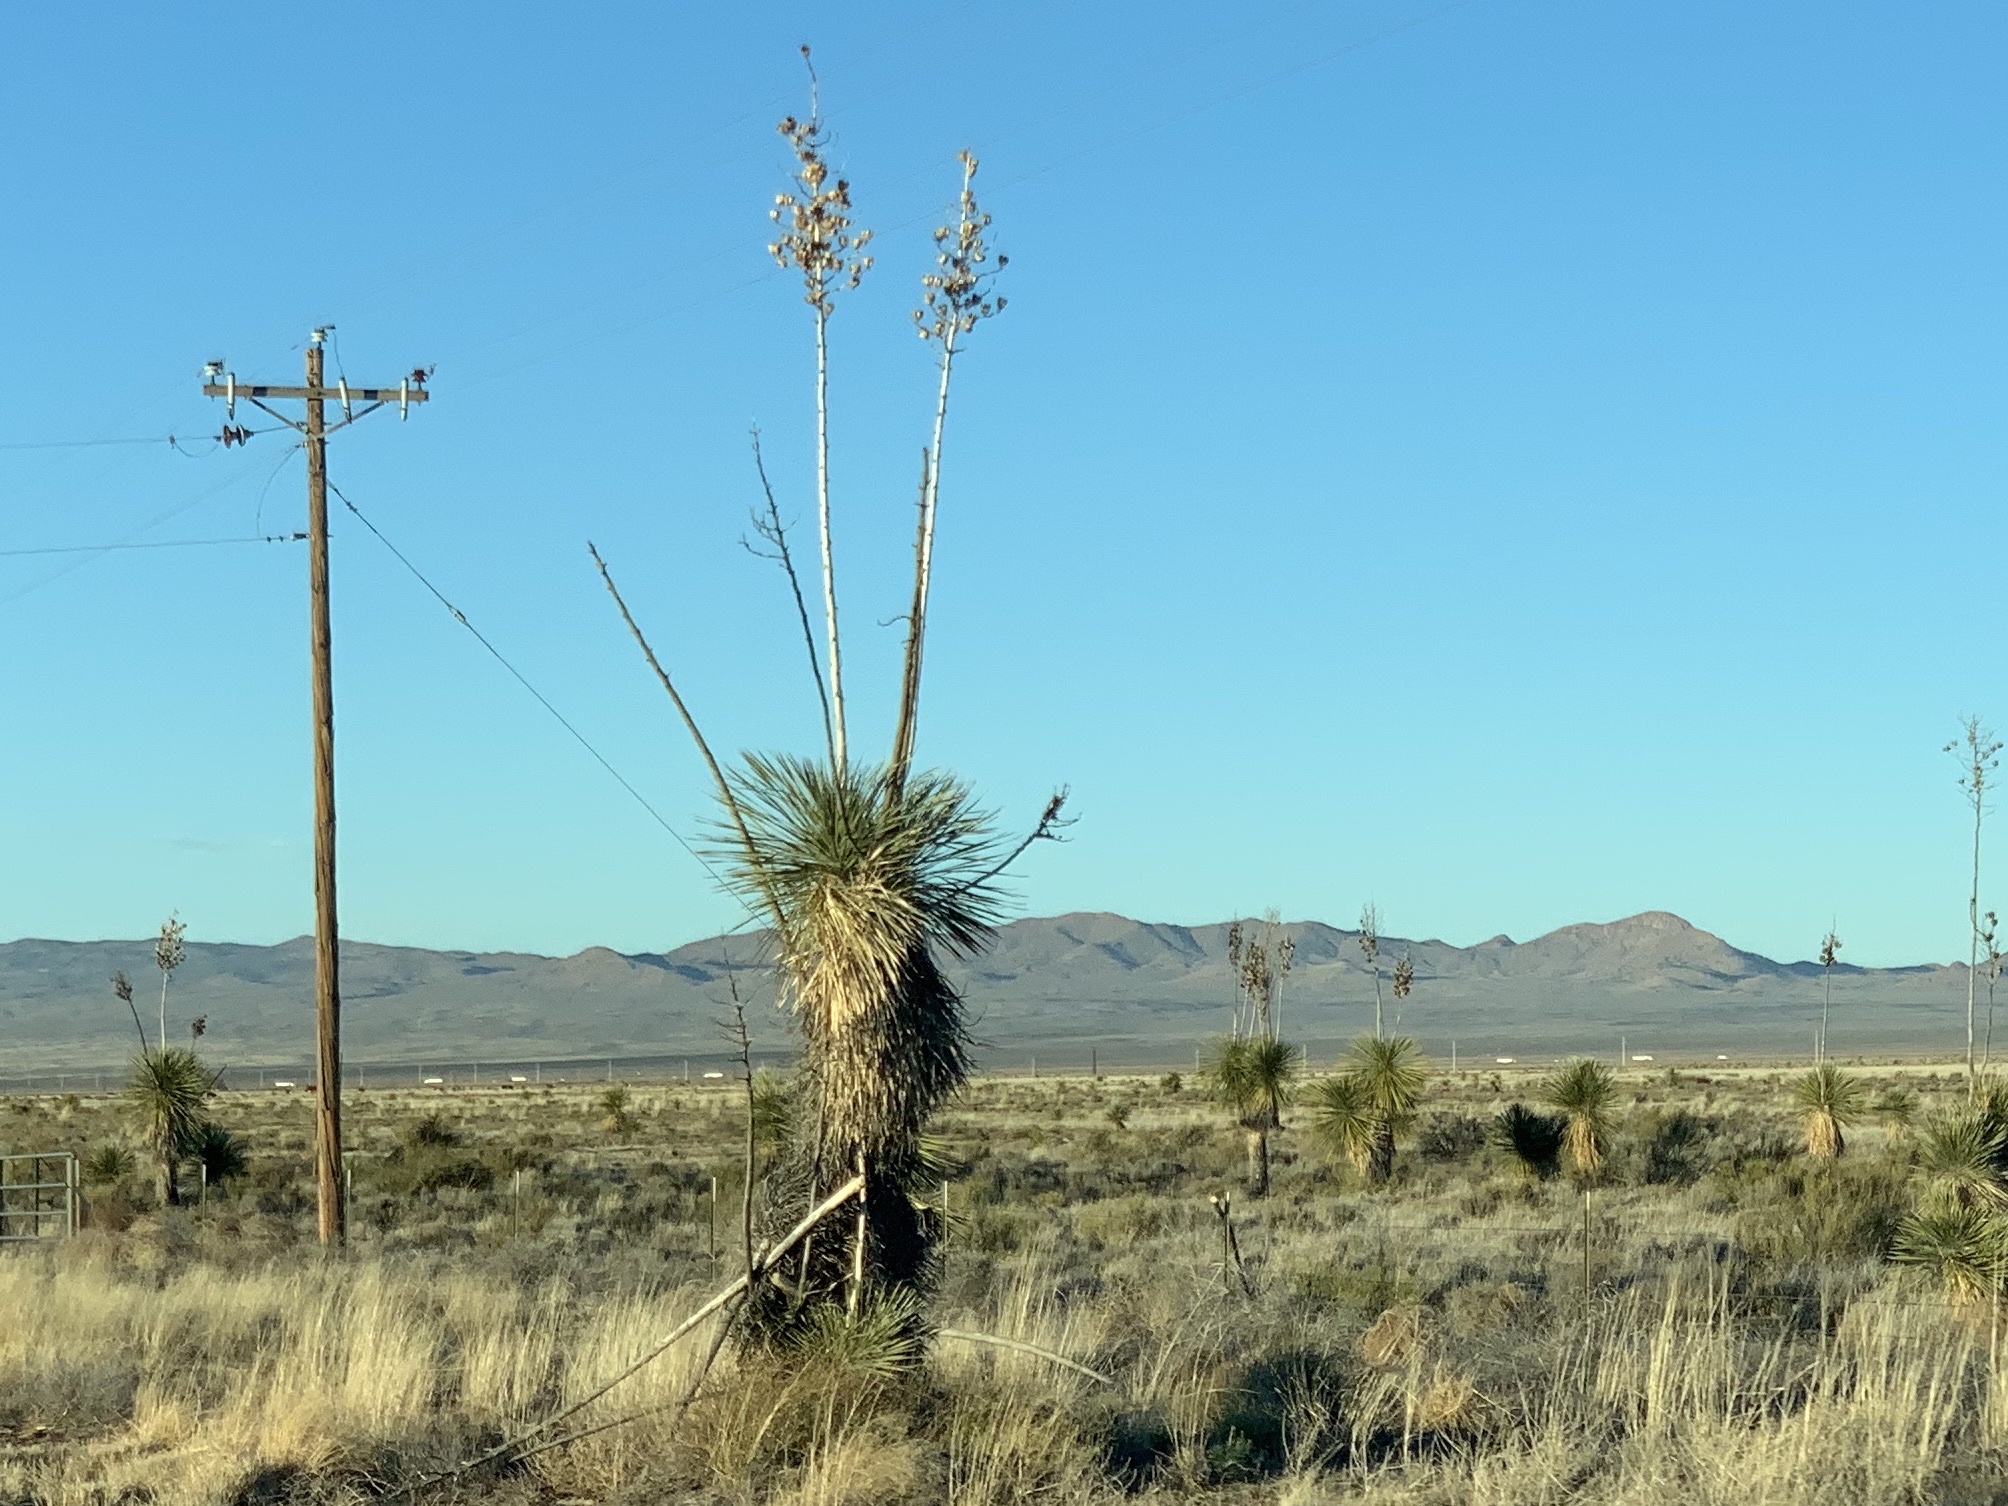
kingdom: Plantae
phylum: Tracheophyta
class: Liliopsida
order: Asparagales
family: Asparagaceae
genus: Yucca
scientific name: Yucca elata
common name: Palmella
